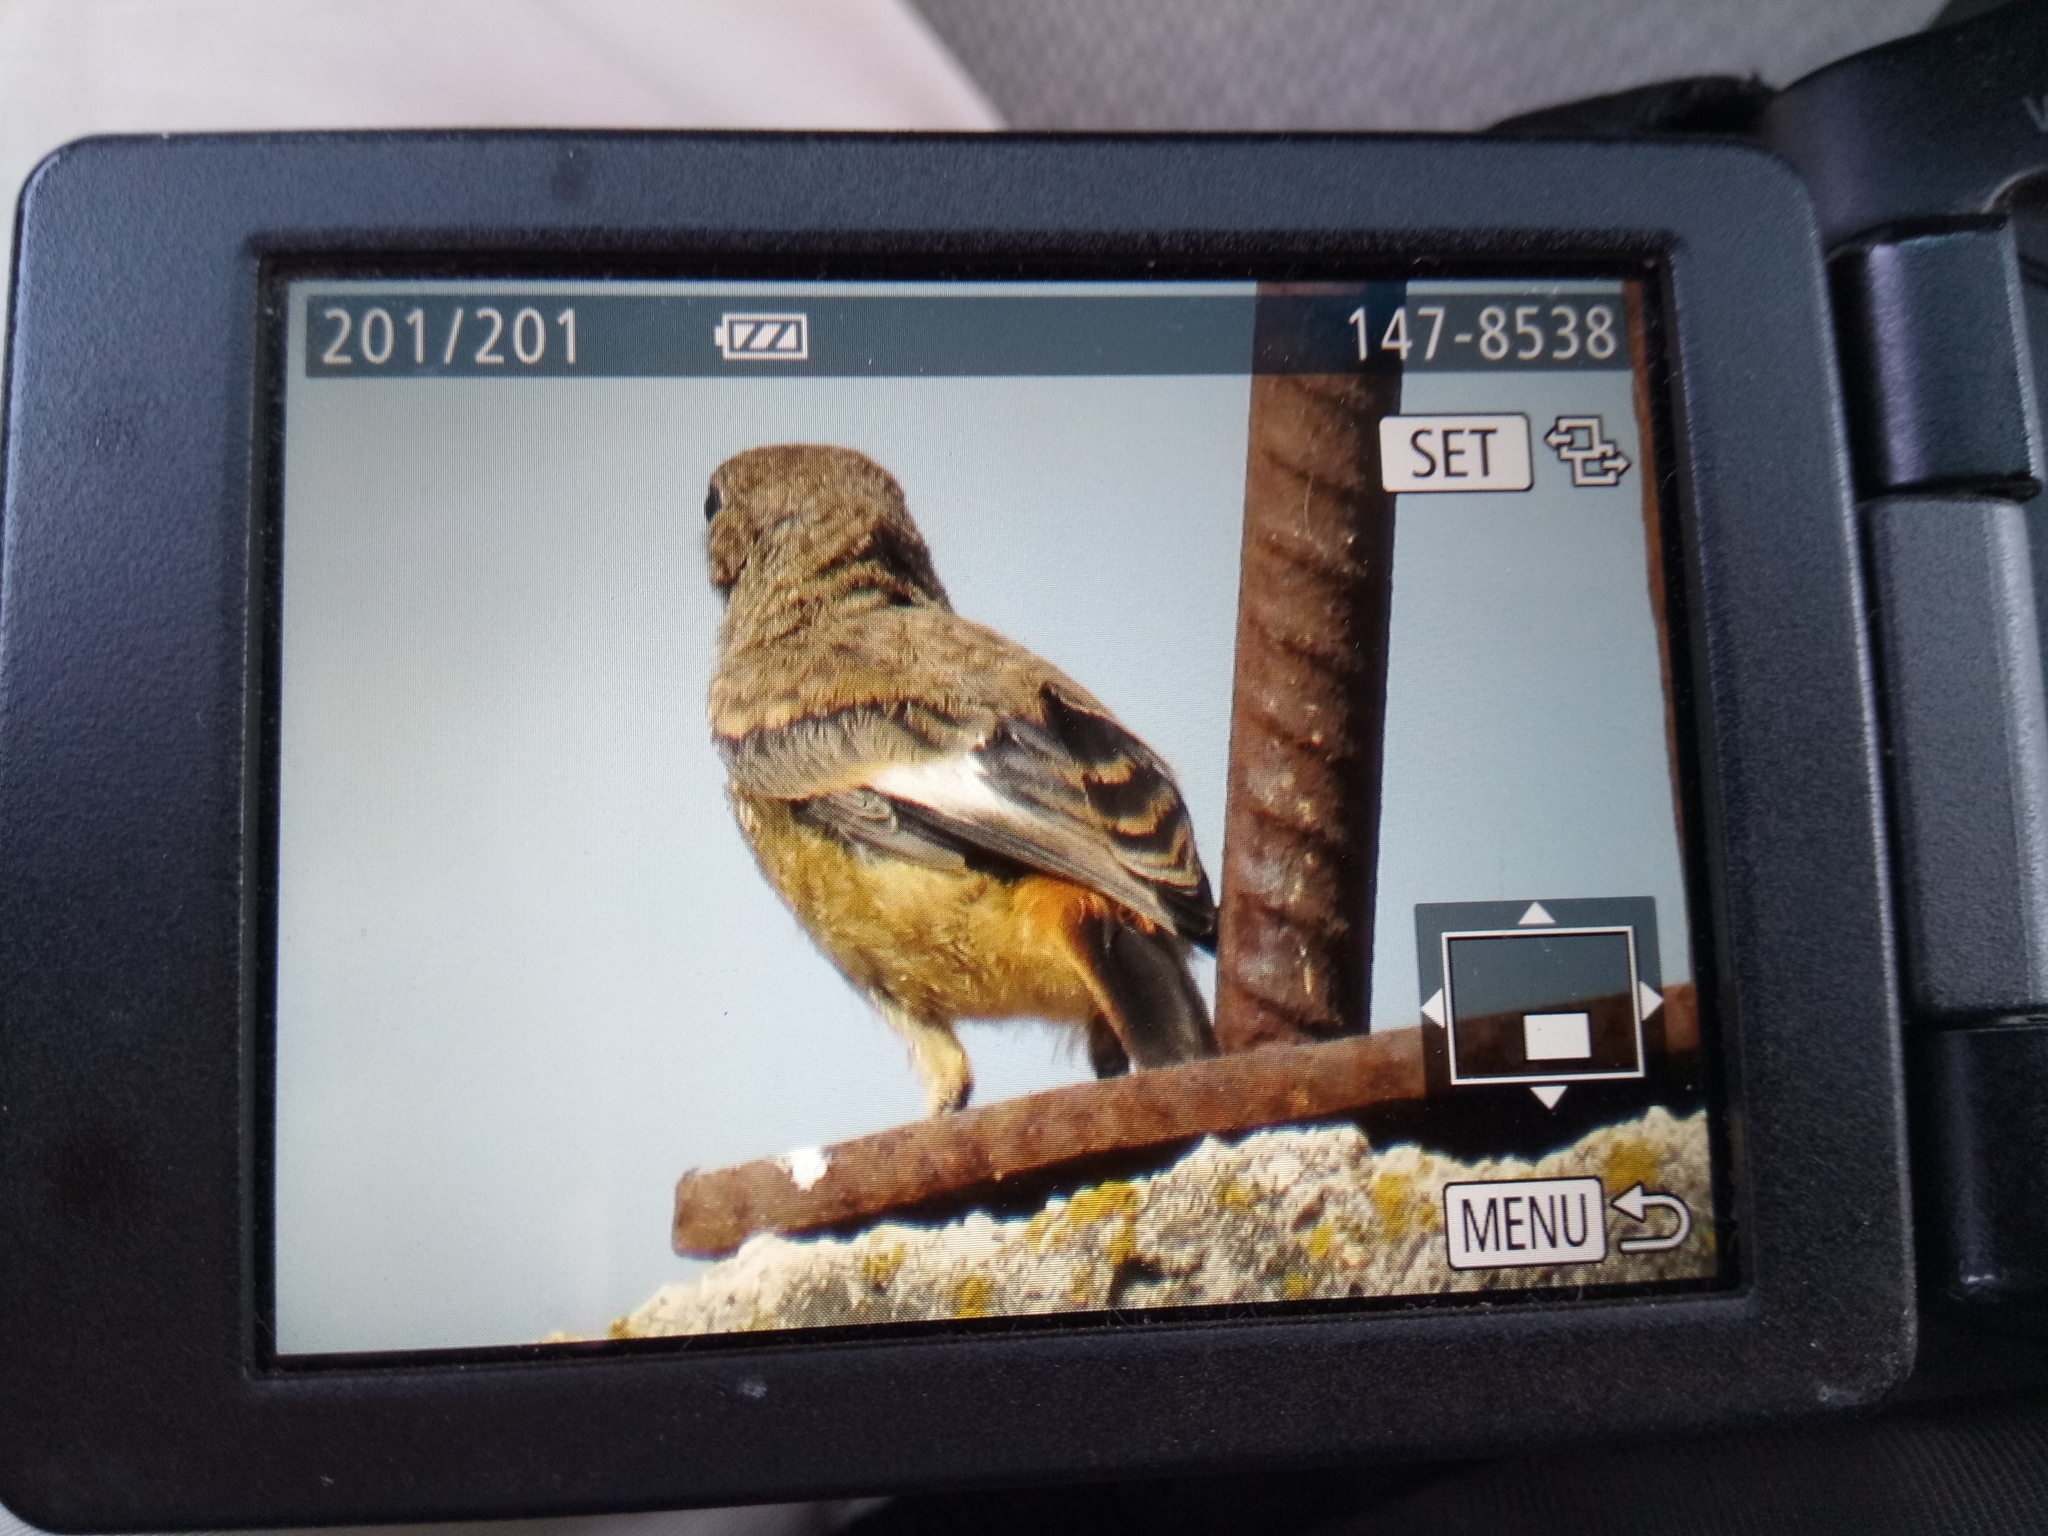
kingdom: Animalia
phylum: Chordata
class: Aves
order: Passeriformes
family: Muscicapidae
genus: Phoenicurus
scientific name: Phoenicurus moussieri
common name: Moussier's redstart
